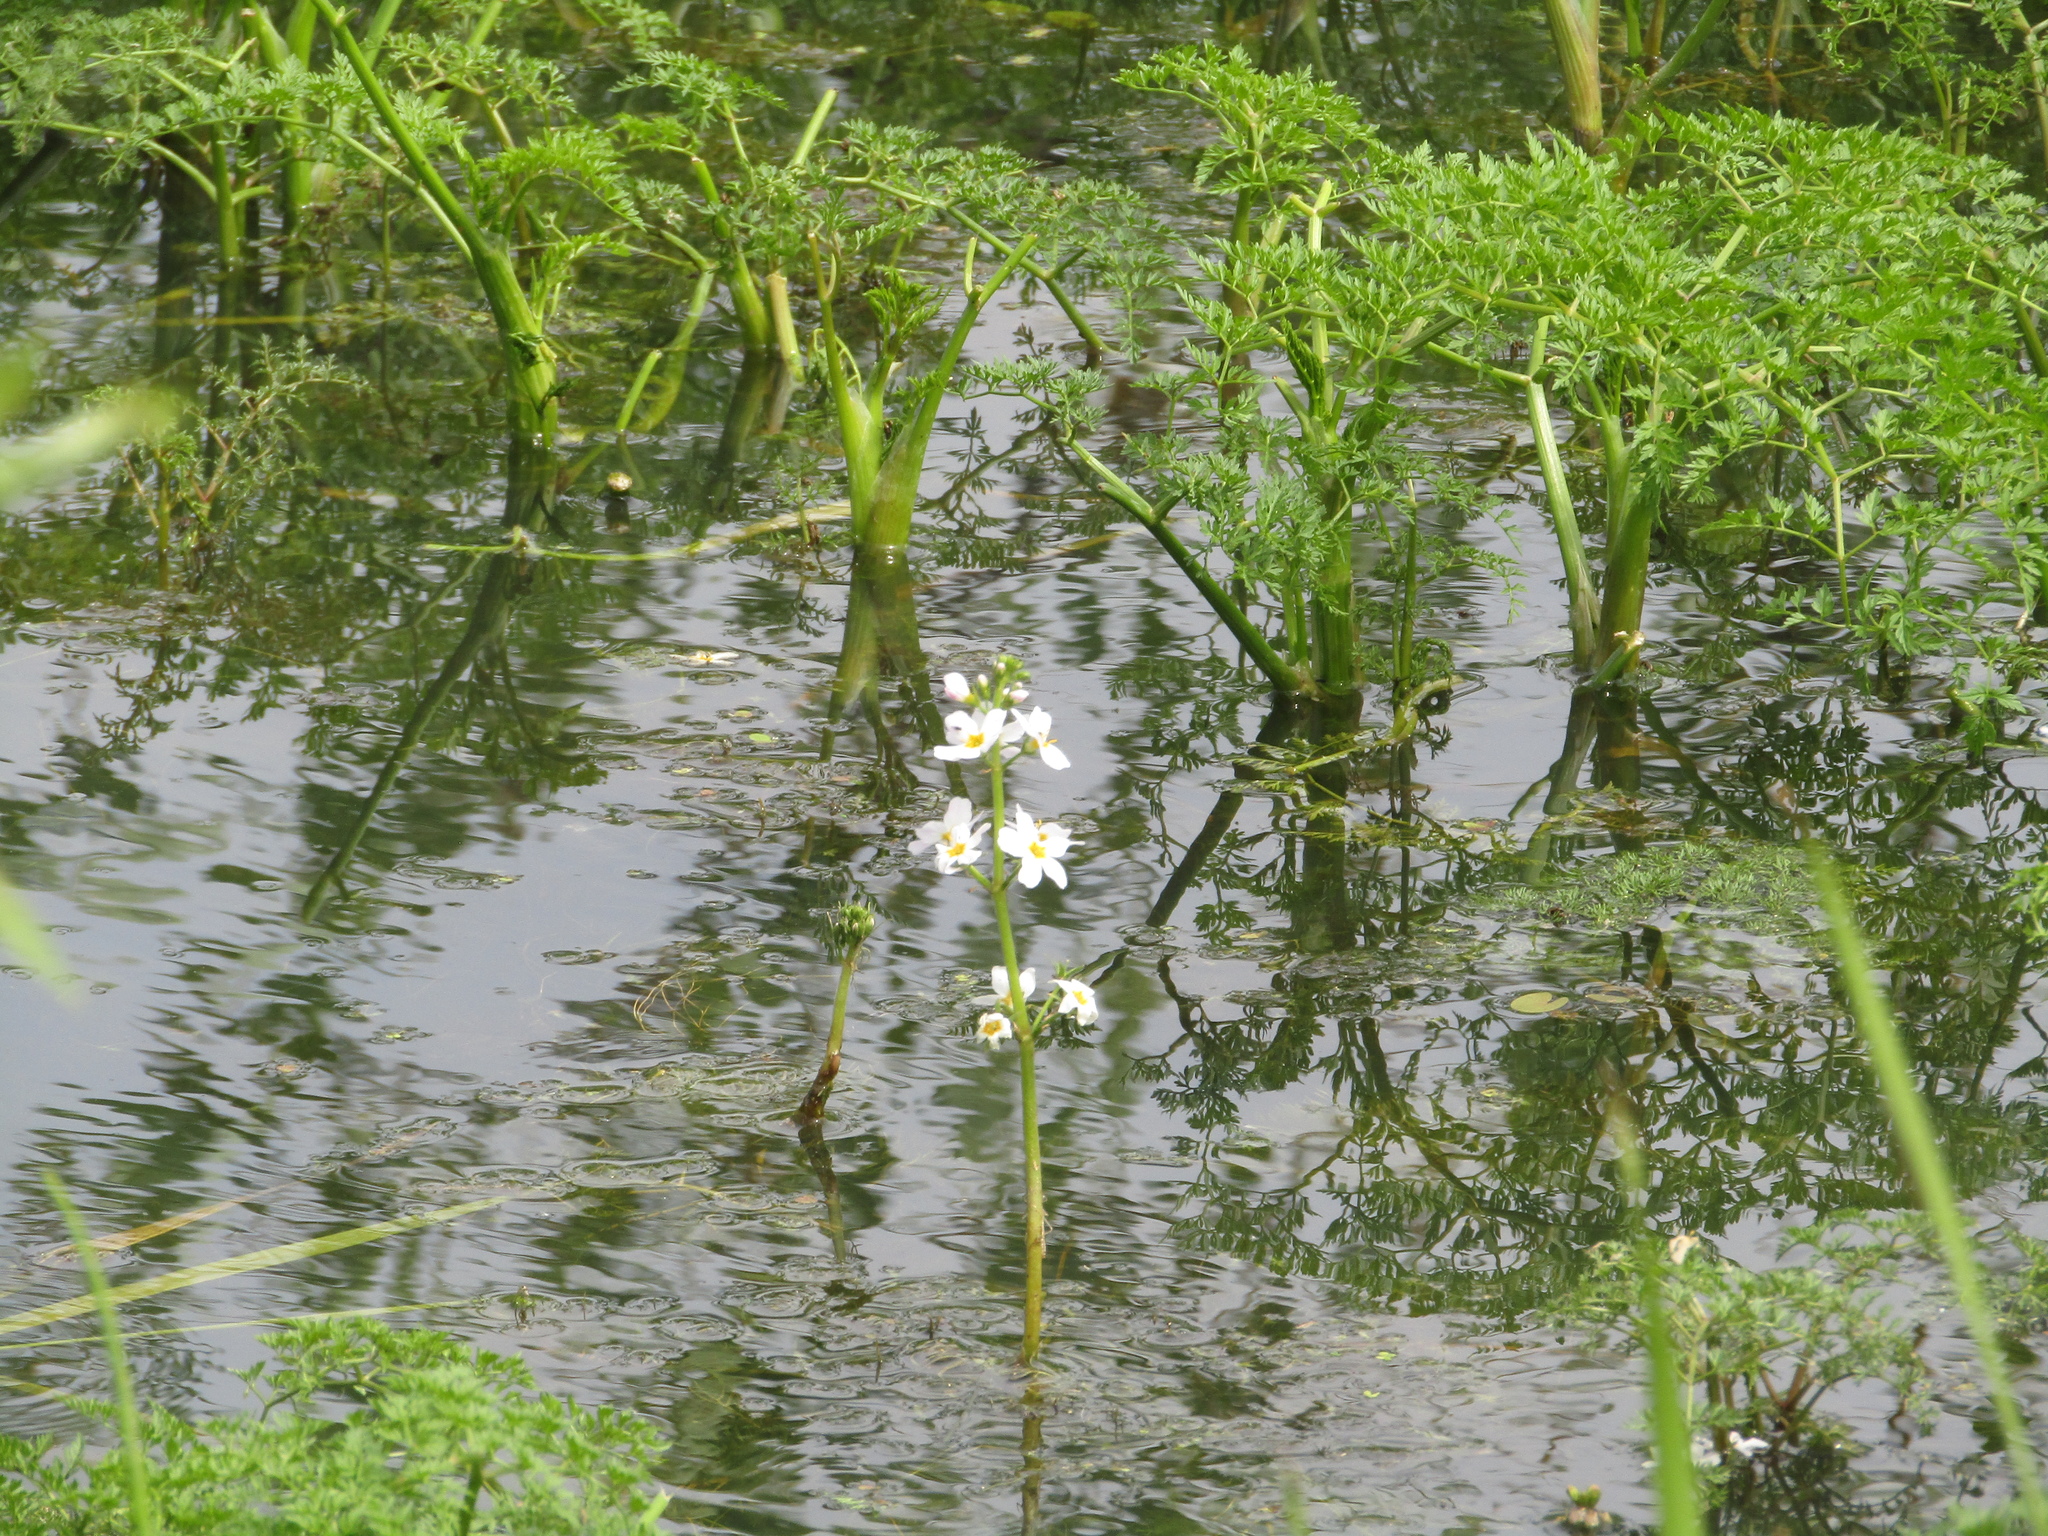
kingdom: Plantae
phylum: Tracheophyta
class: Magnoliopsida
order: Ericales
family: Primulaceae
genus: Hottonia
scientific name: Hottonia palustris
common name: Water-violet
